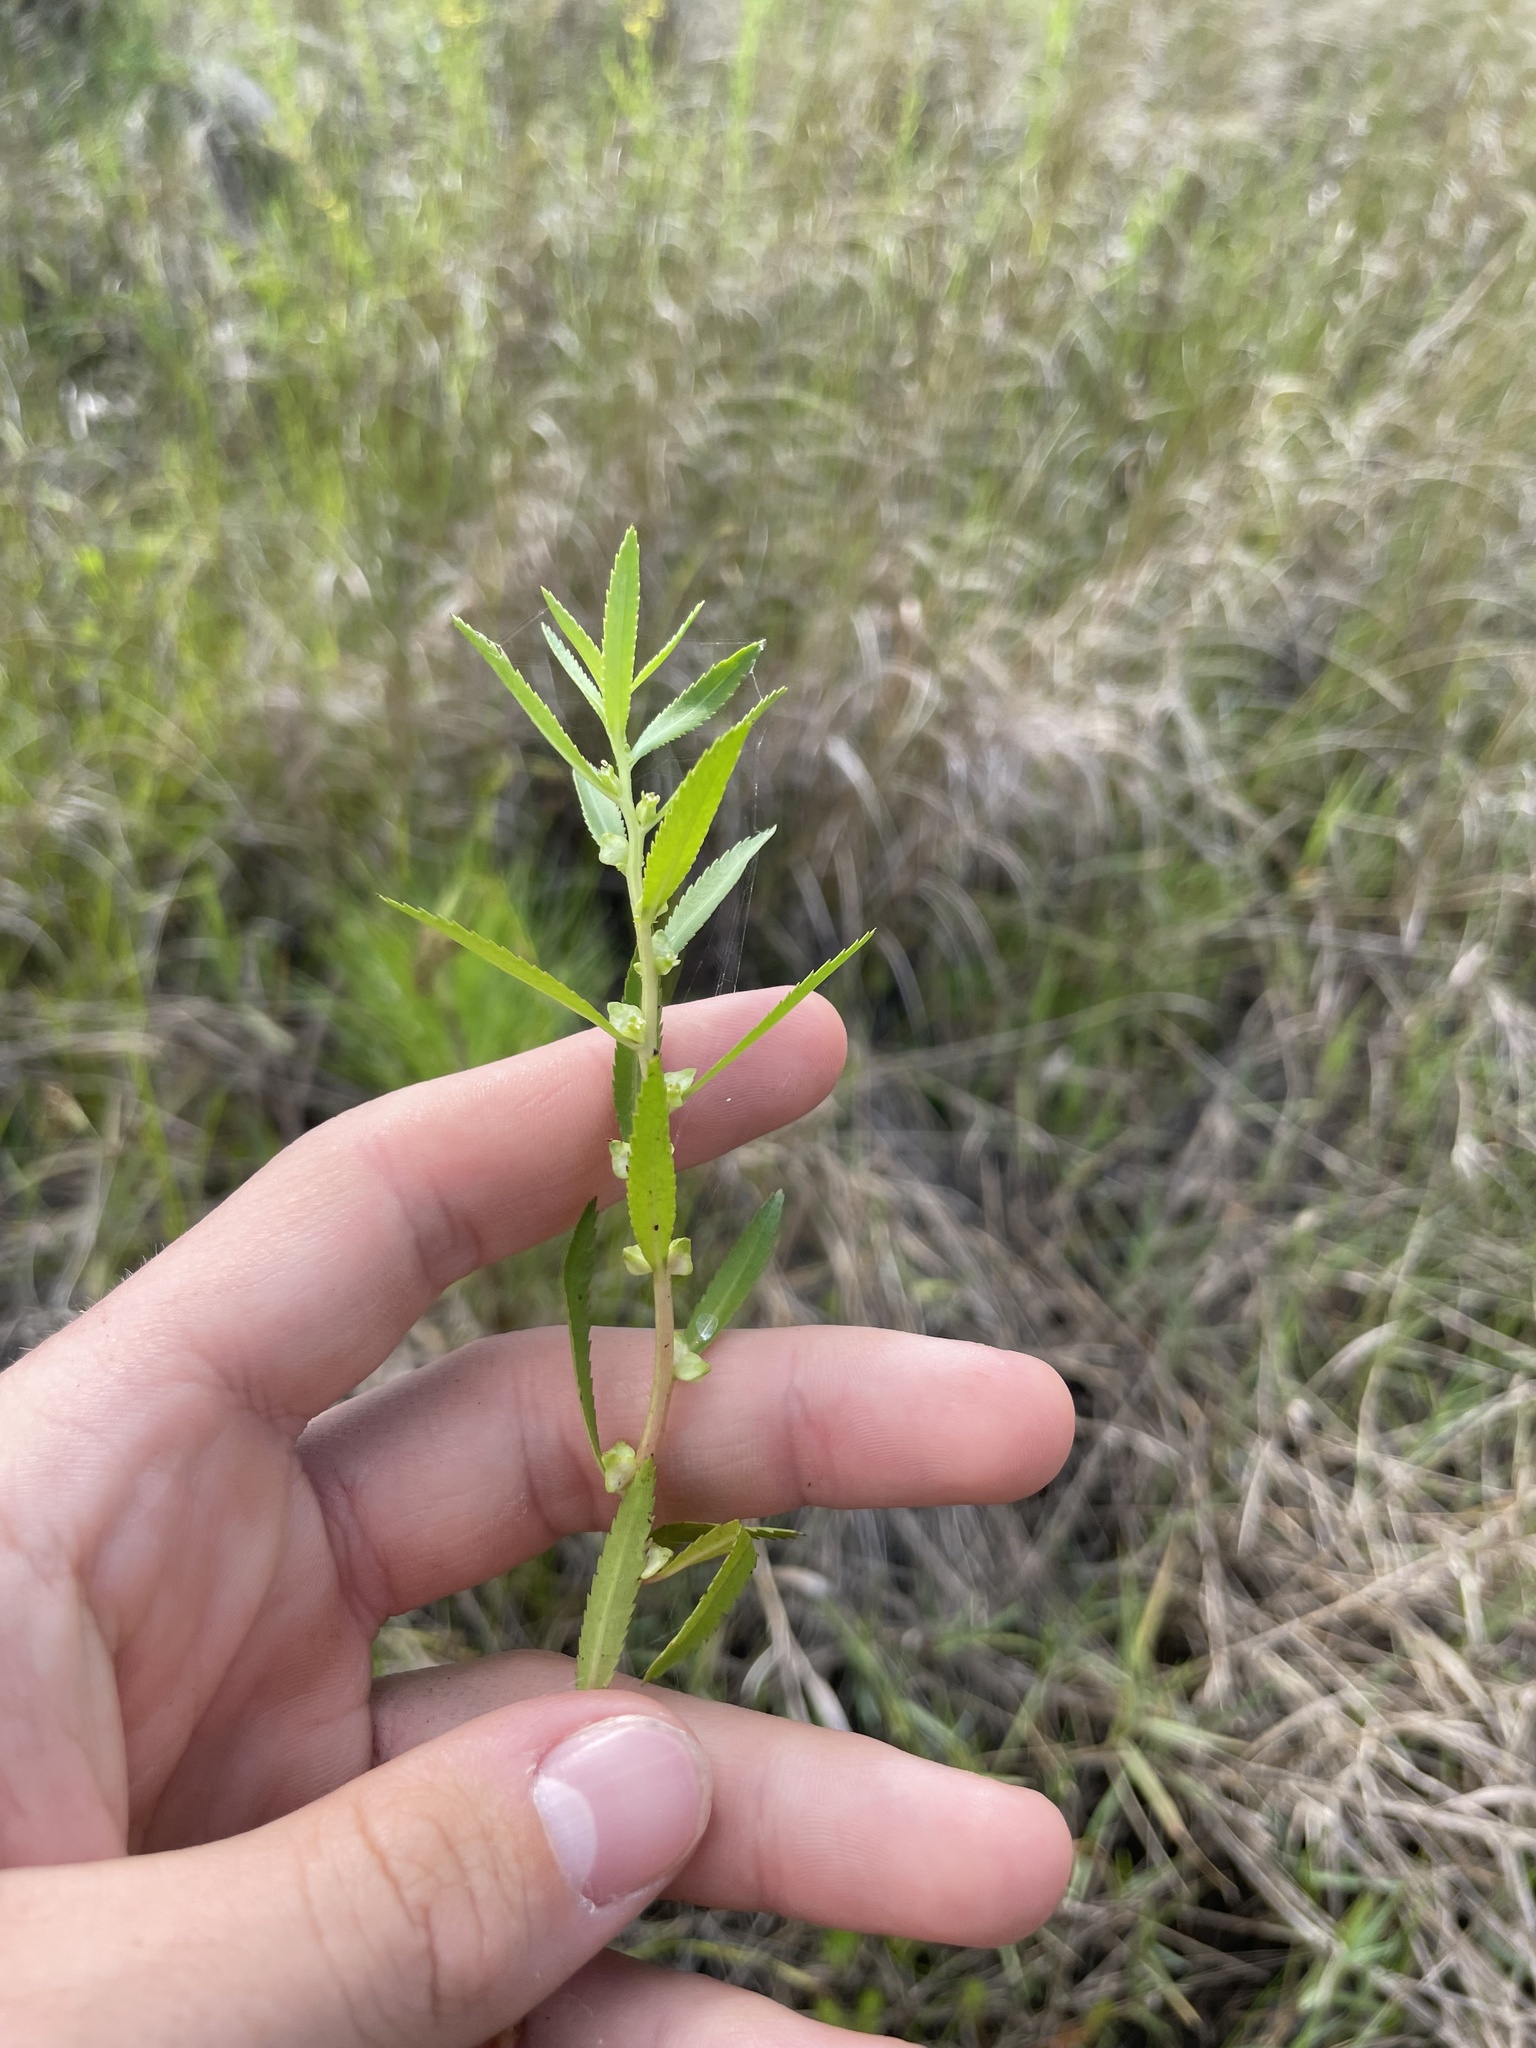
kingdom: Plantae
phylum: Tracheophyta
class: Magnoliopsida
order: Saxifragales
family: Haloragaceae
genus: Proserpinaca
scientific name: Proserpinaca palustris
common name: Marsh mermaidweed
